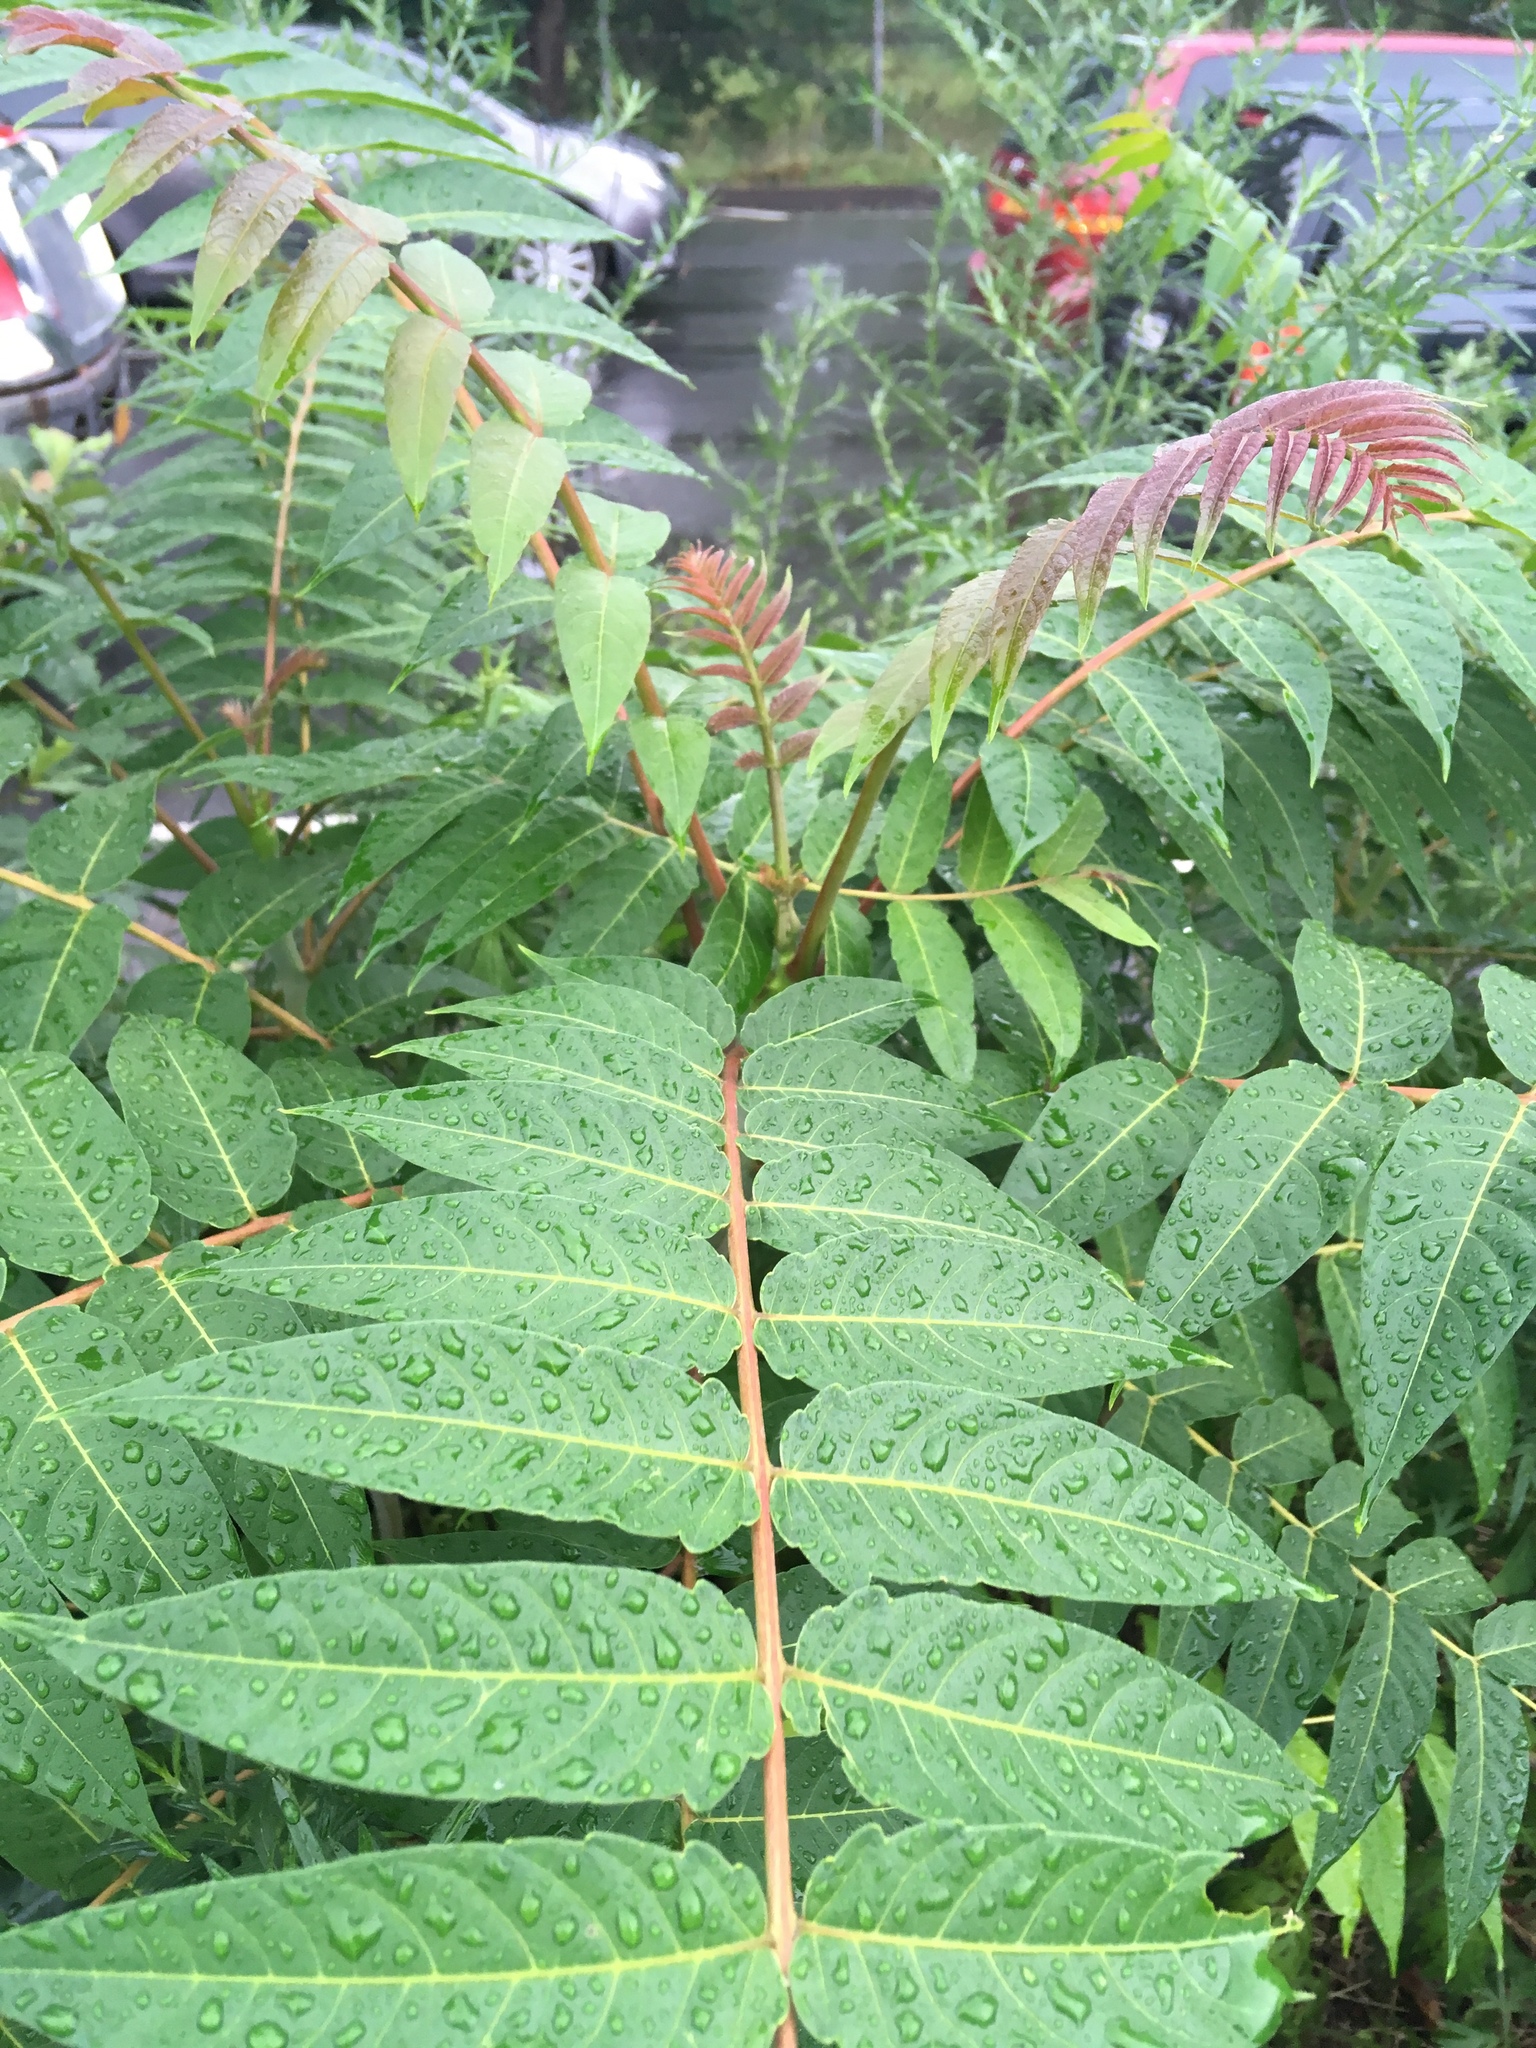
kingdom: Plantae
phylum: Tracheophyta
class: Magnoliopsida
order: Sapindales
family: Simaroubaceae
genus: Ailanthus
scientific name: Ailanthus altissima
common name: Tree-of-heaven
